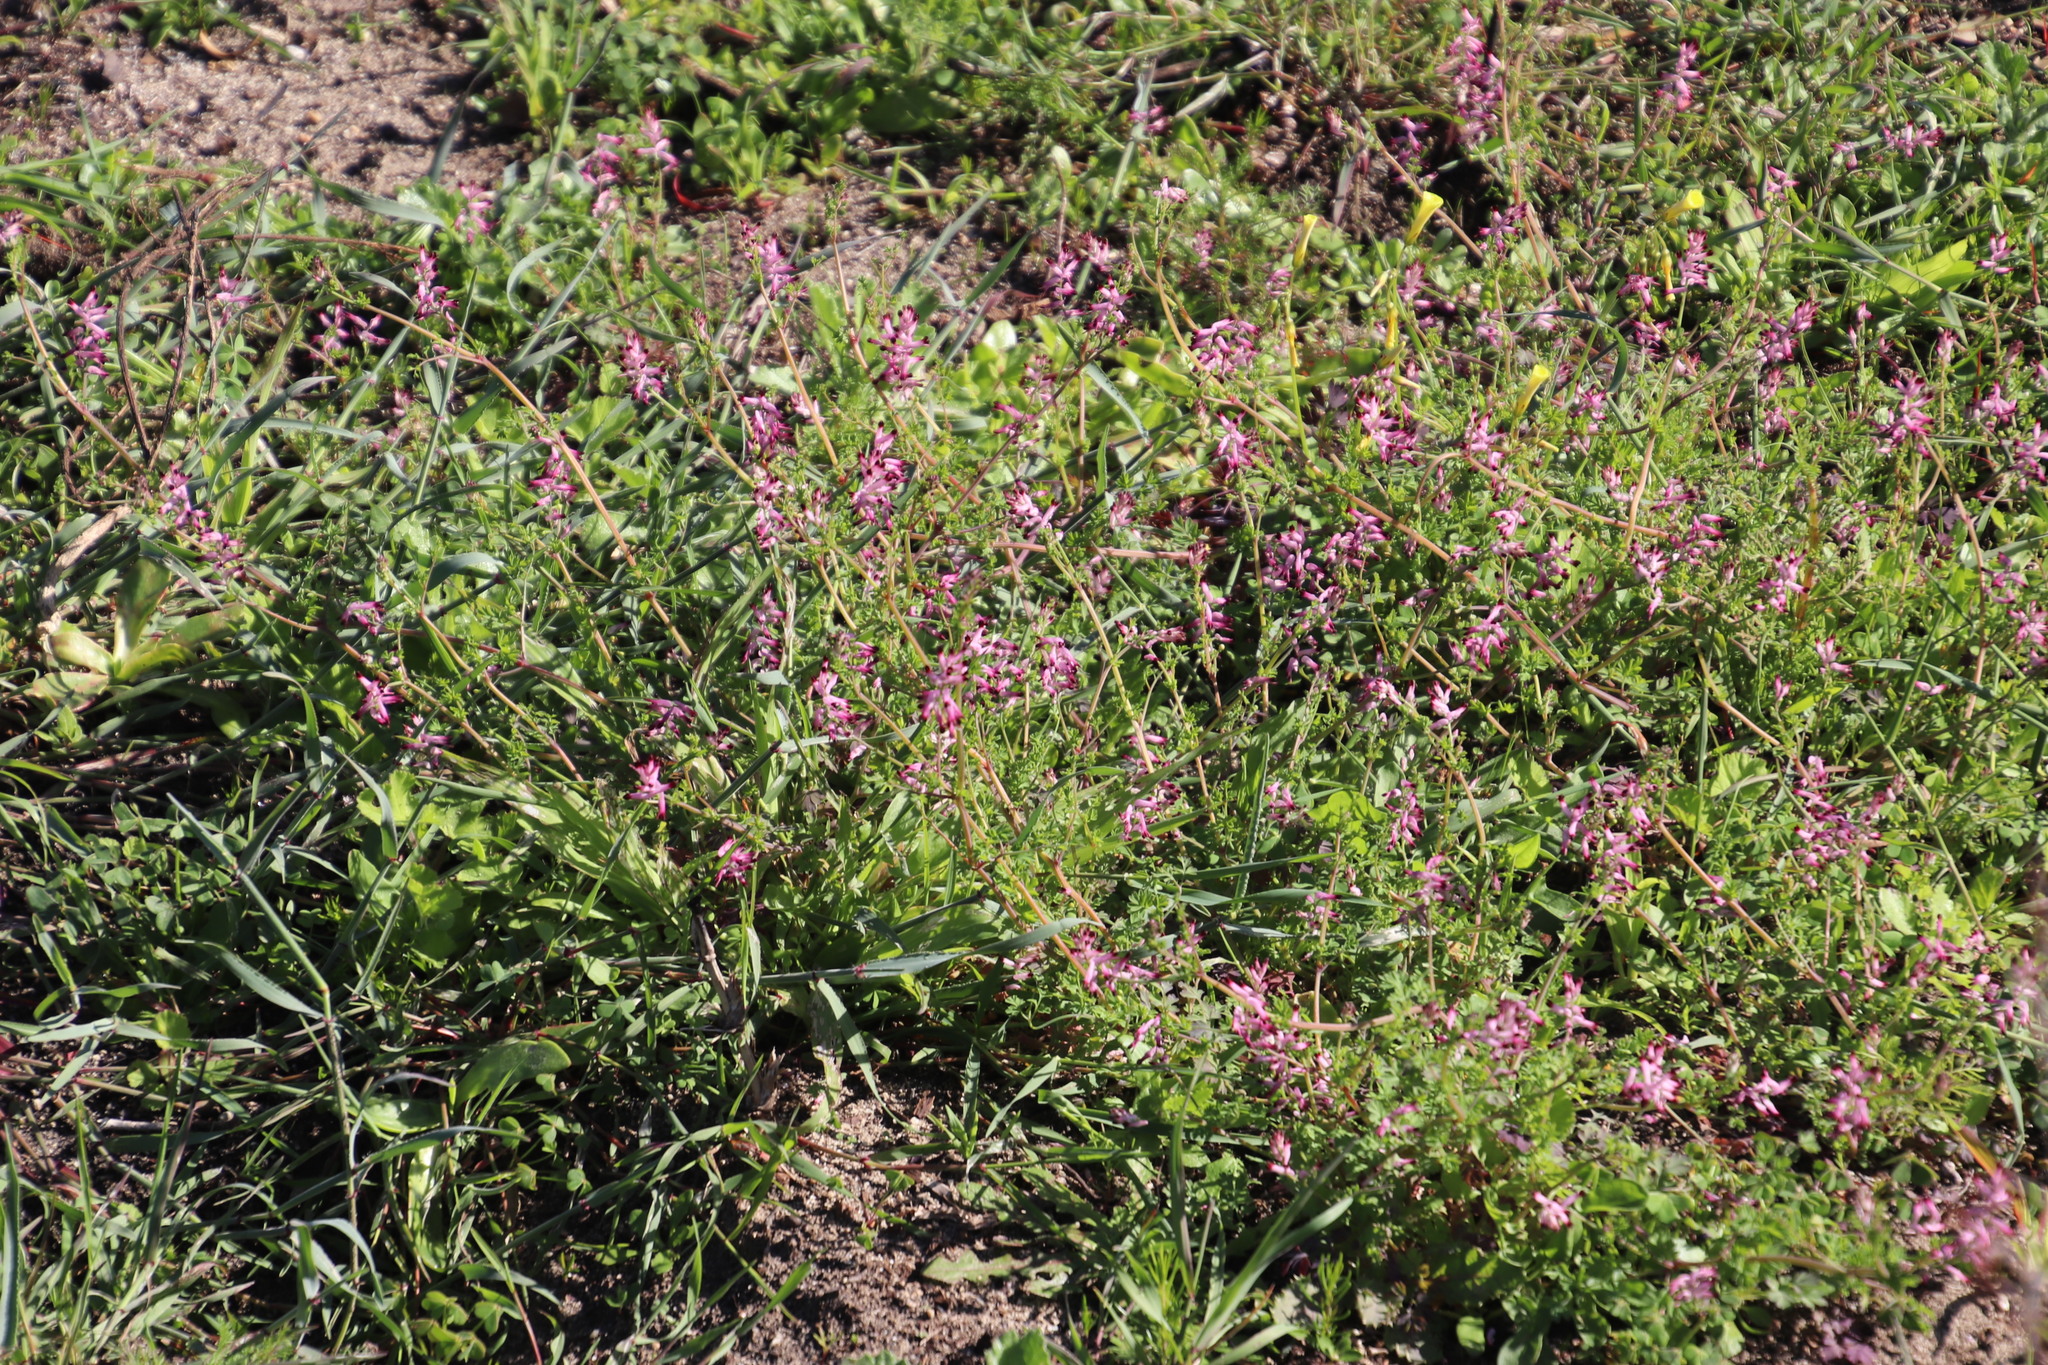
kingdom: Plantae
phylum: Tracheophyta
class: Magnoliopsida
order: Ranunculales
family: Papaveraceae
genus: Fumaria
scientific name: Fumaria muralis
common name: Common ramping-fumitory
